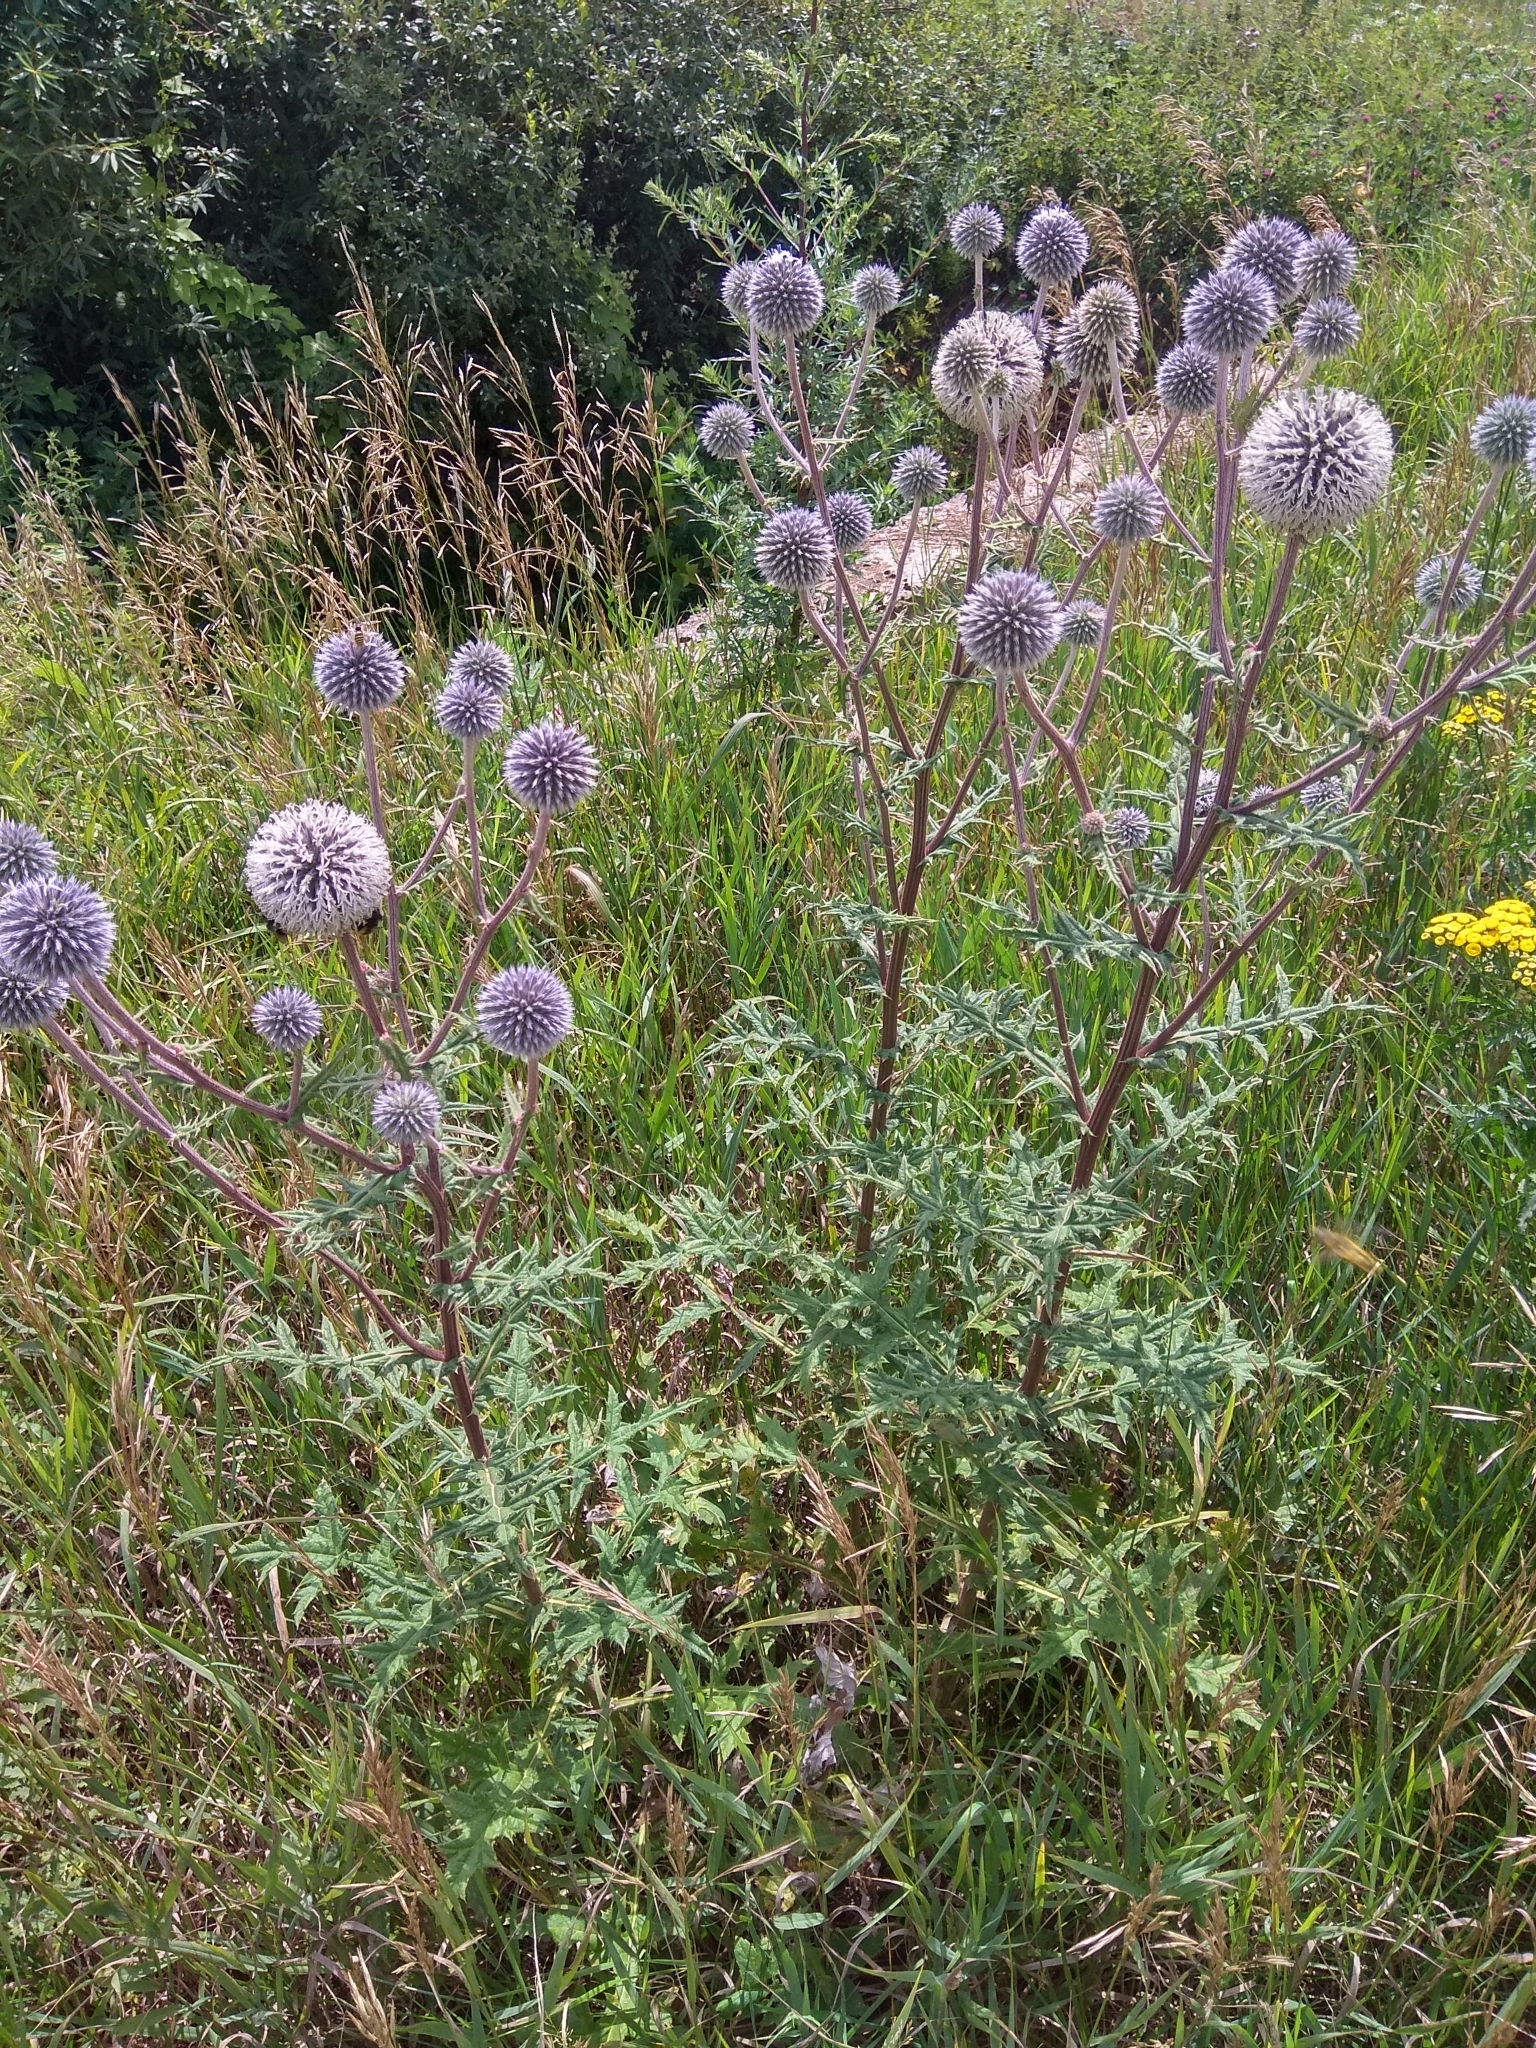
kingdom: Plantae
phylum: Tracheophyta
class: Magnoliopsida
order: Asterales
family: Asteraceae
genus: Echinops
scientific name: Echinops sphaerocephalus
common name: Glandular globe-thistle
